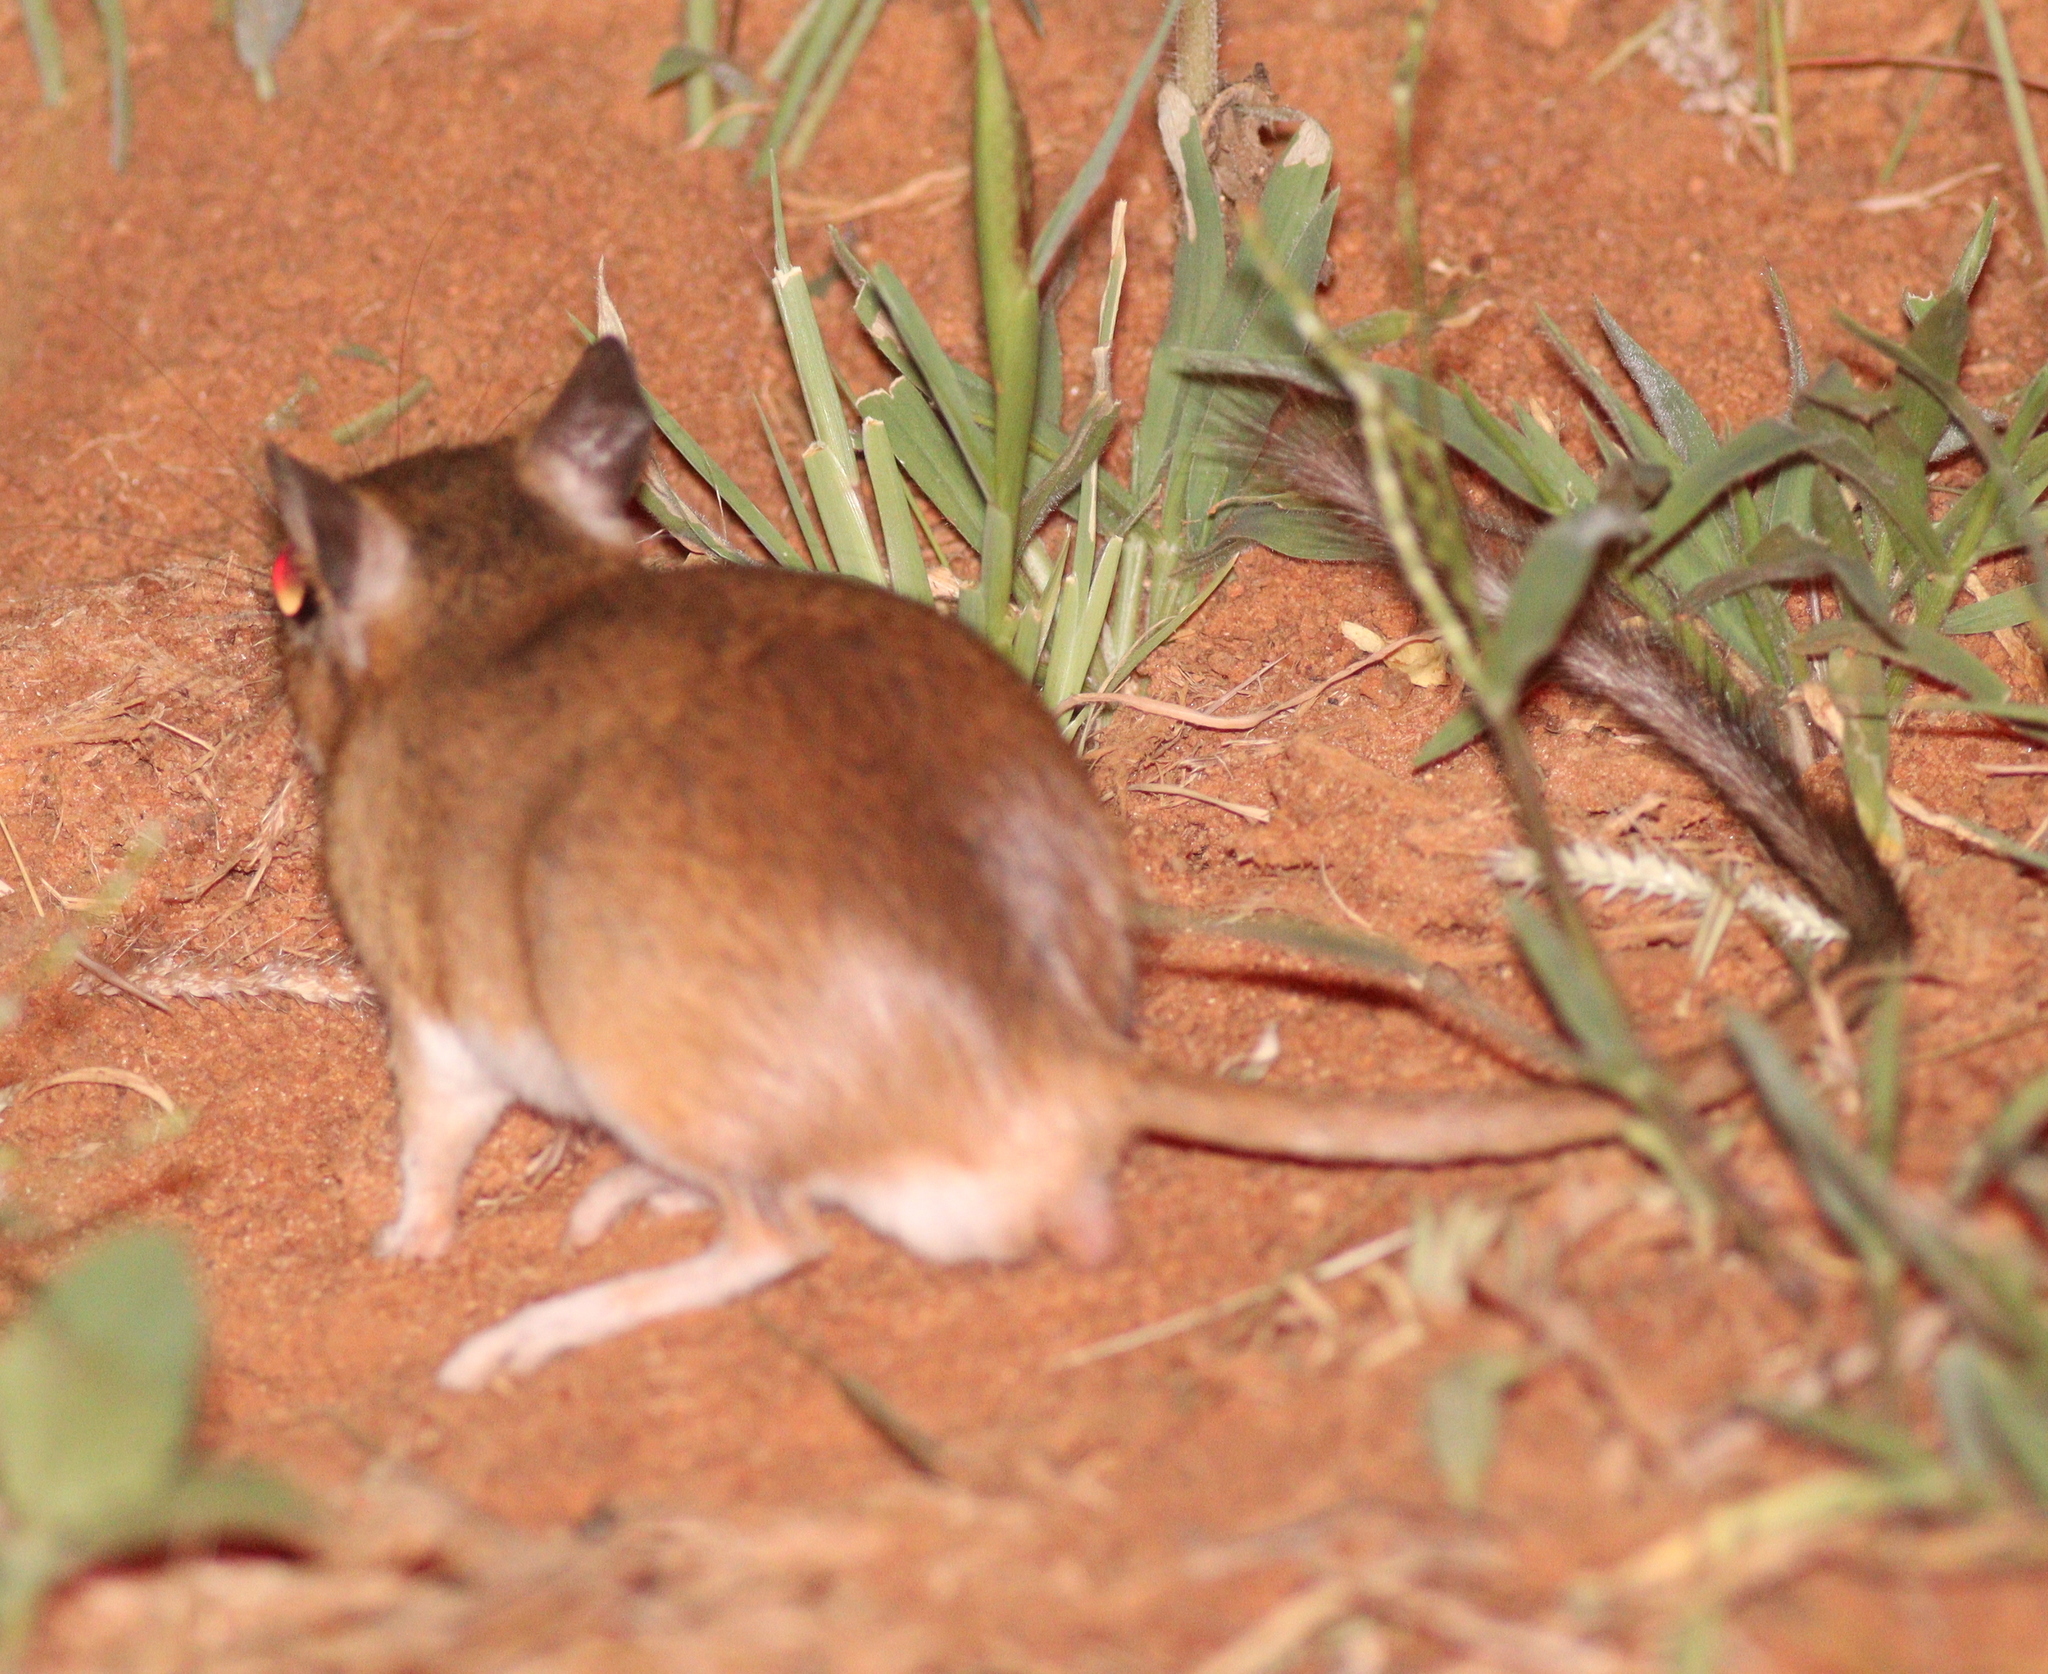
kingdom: Animalia
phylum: Chordata
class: Mammalia
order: Rodentia
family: Muridae
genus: Taterillus
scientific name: Taterillus emini
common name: Emin's gerbil
